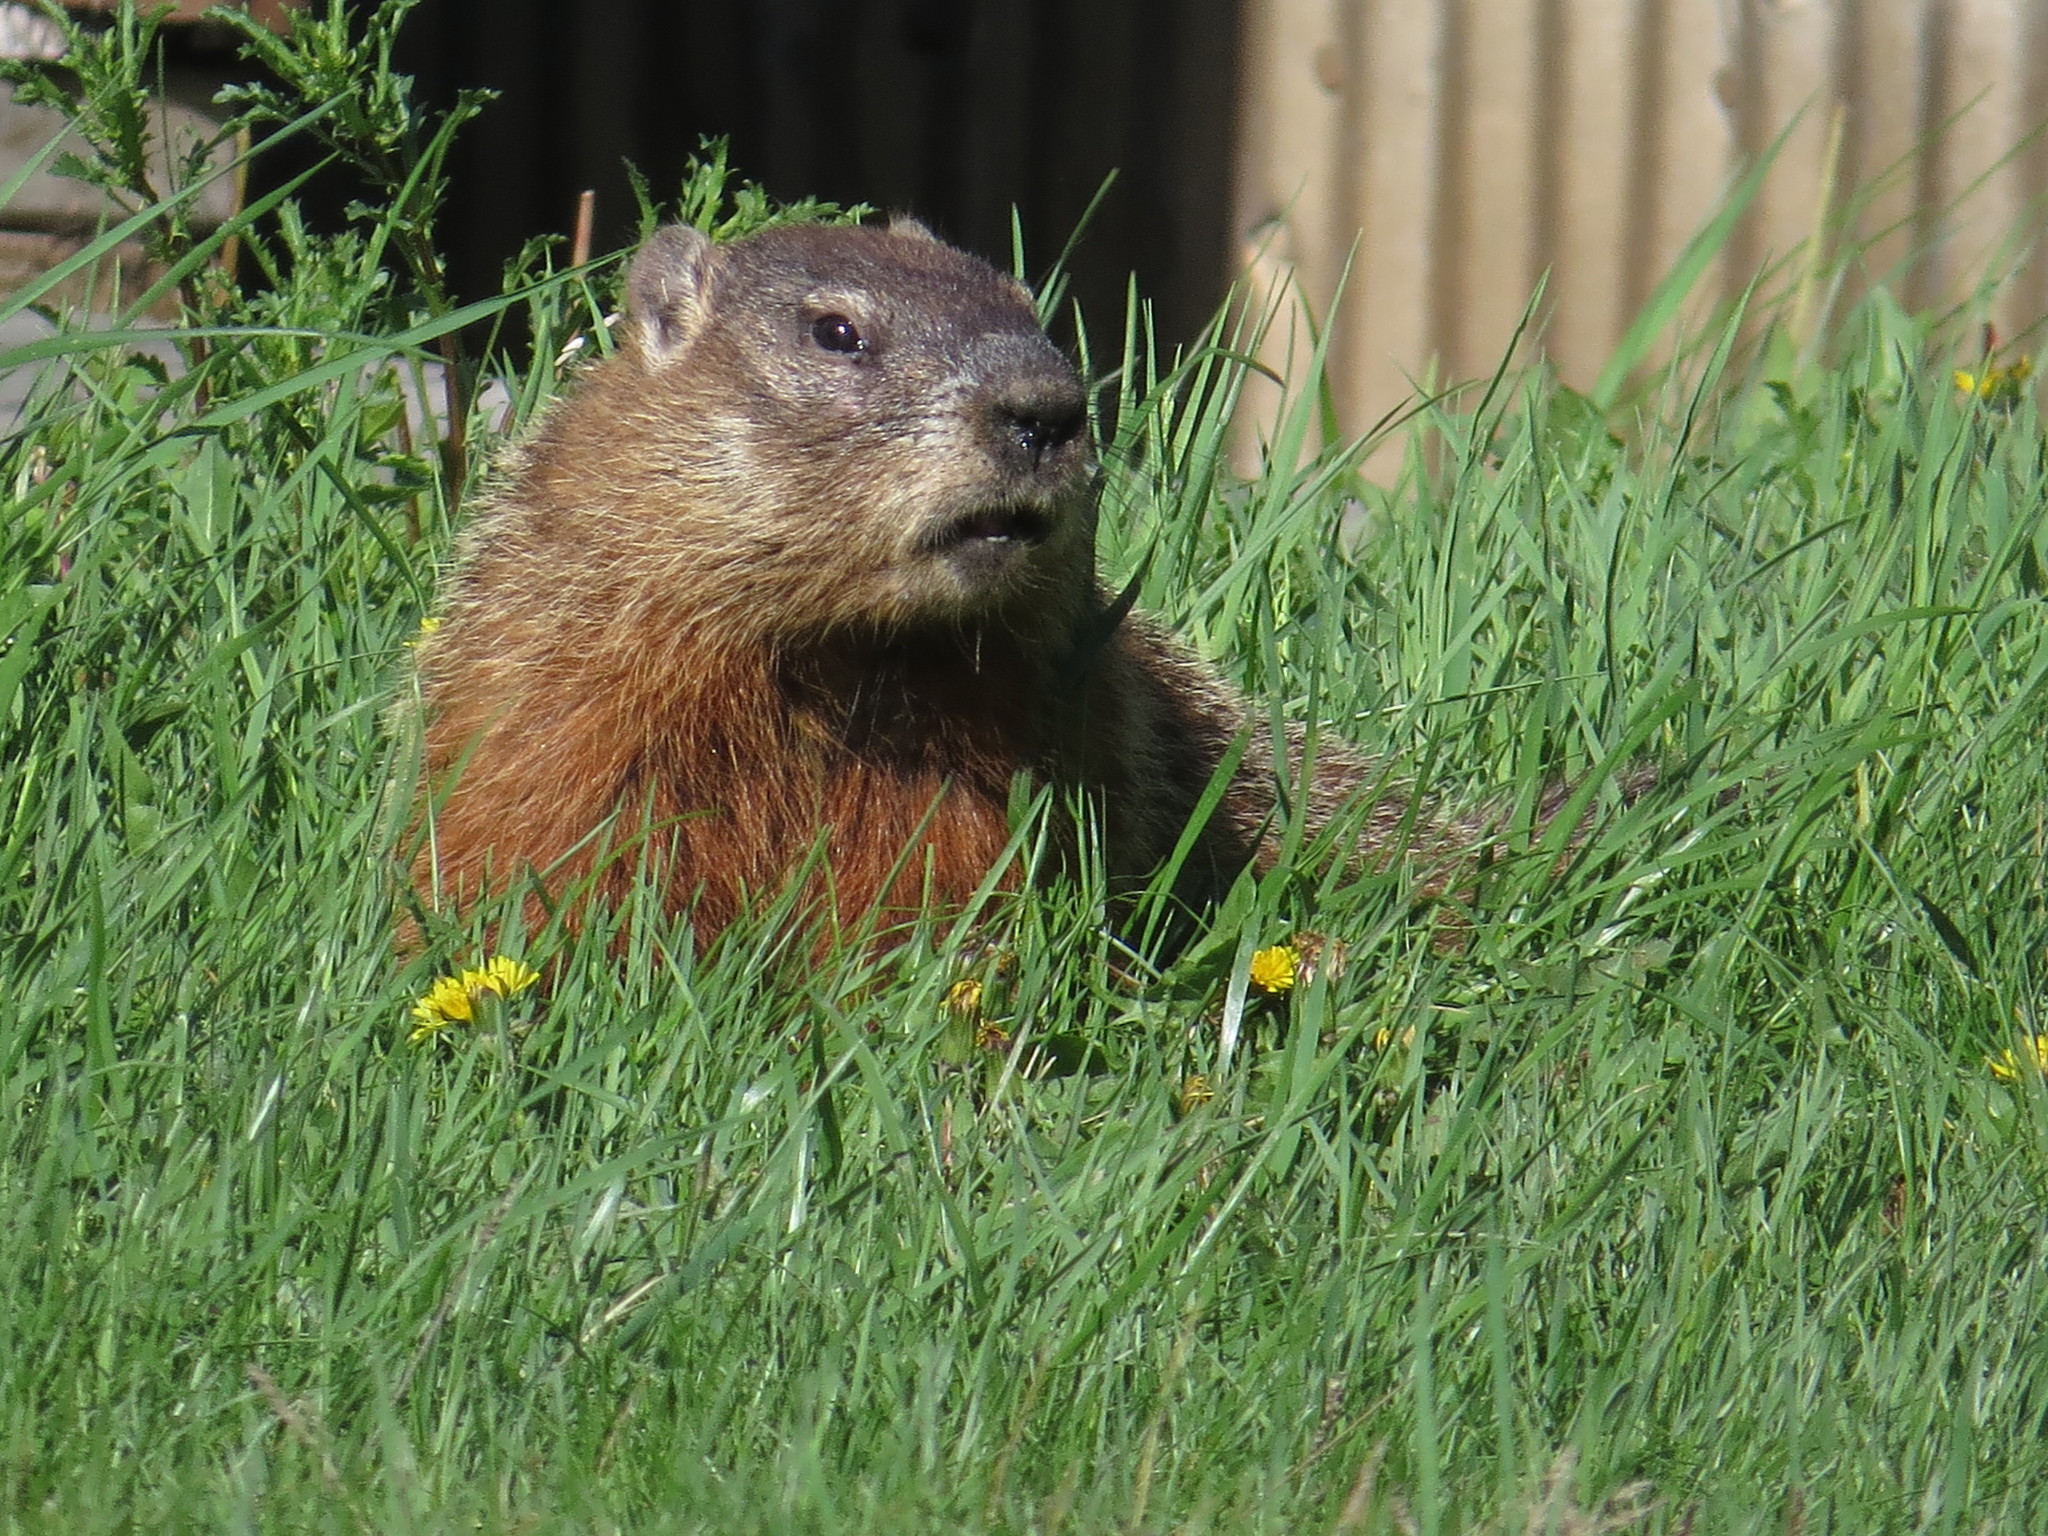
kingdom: Animalia
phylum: Chordata
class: Mammalia
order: Rodentia
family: Sciuridae
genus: Marmota
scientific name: Marmota monax
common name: Groundhog
